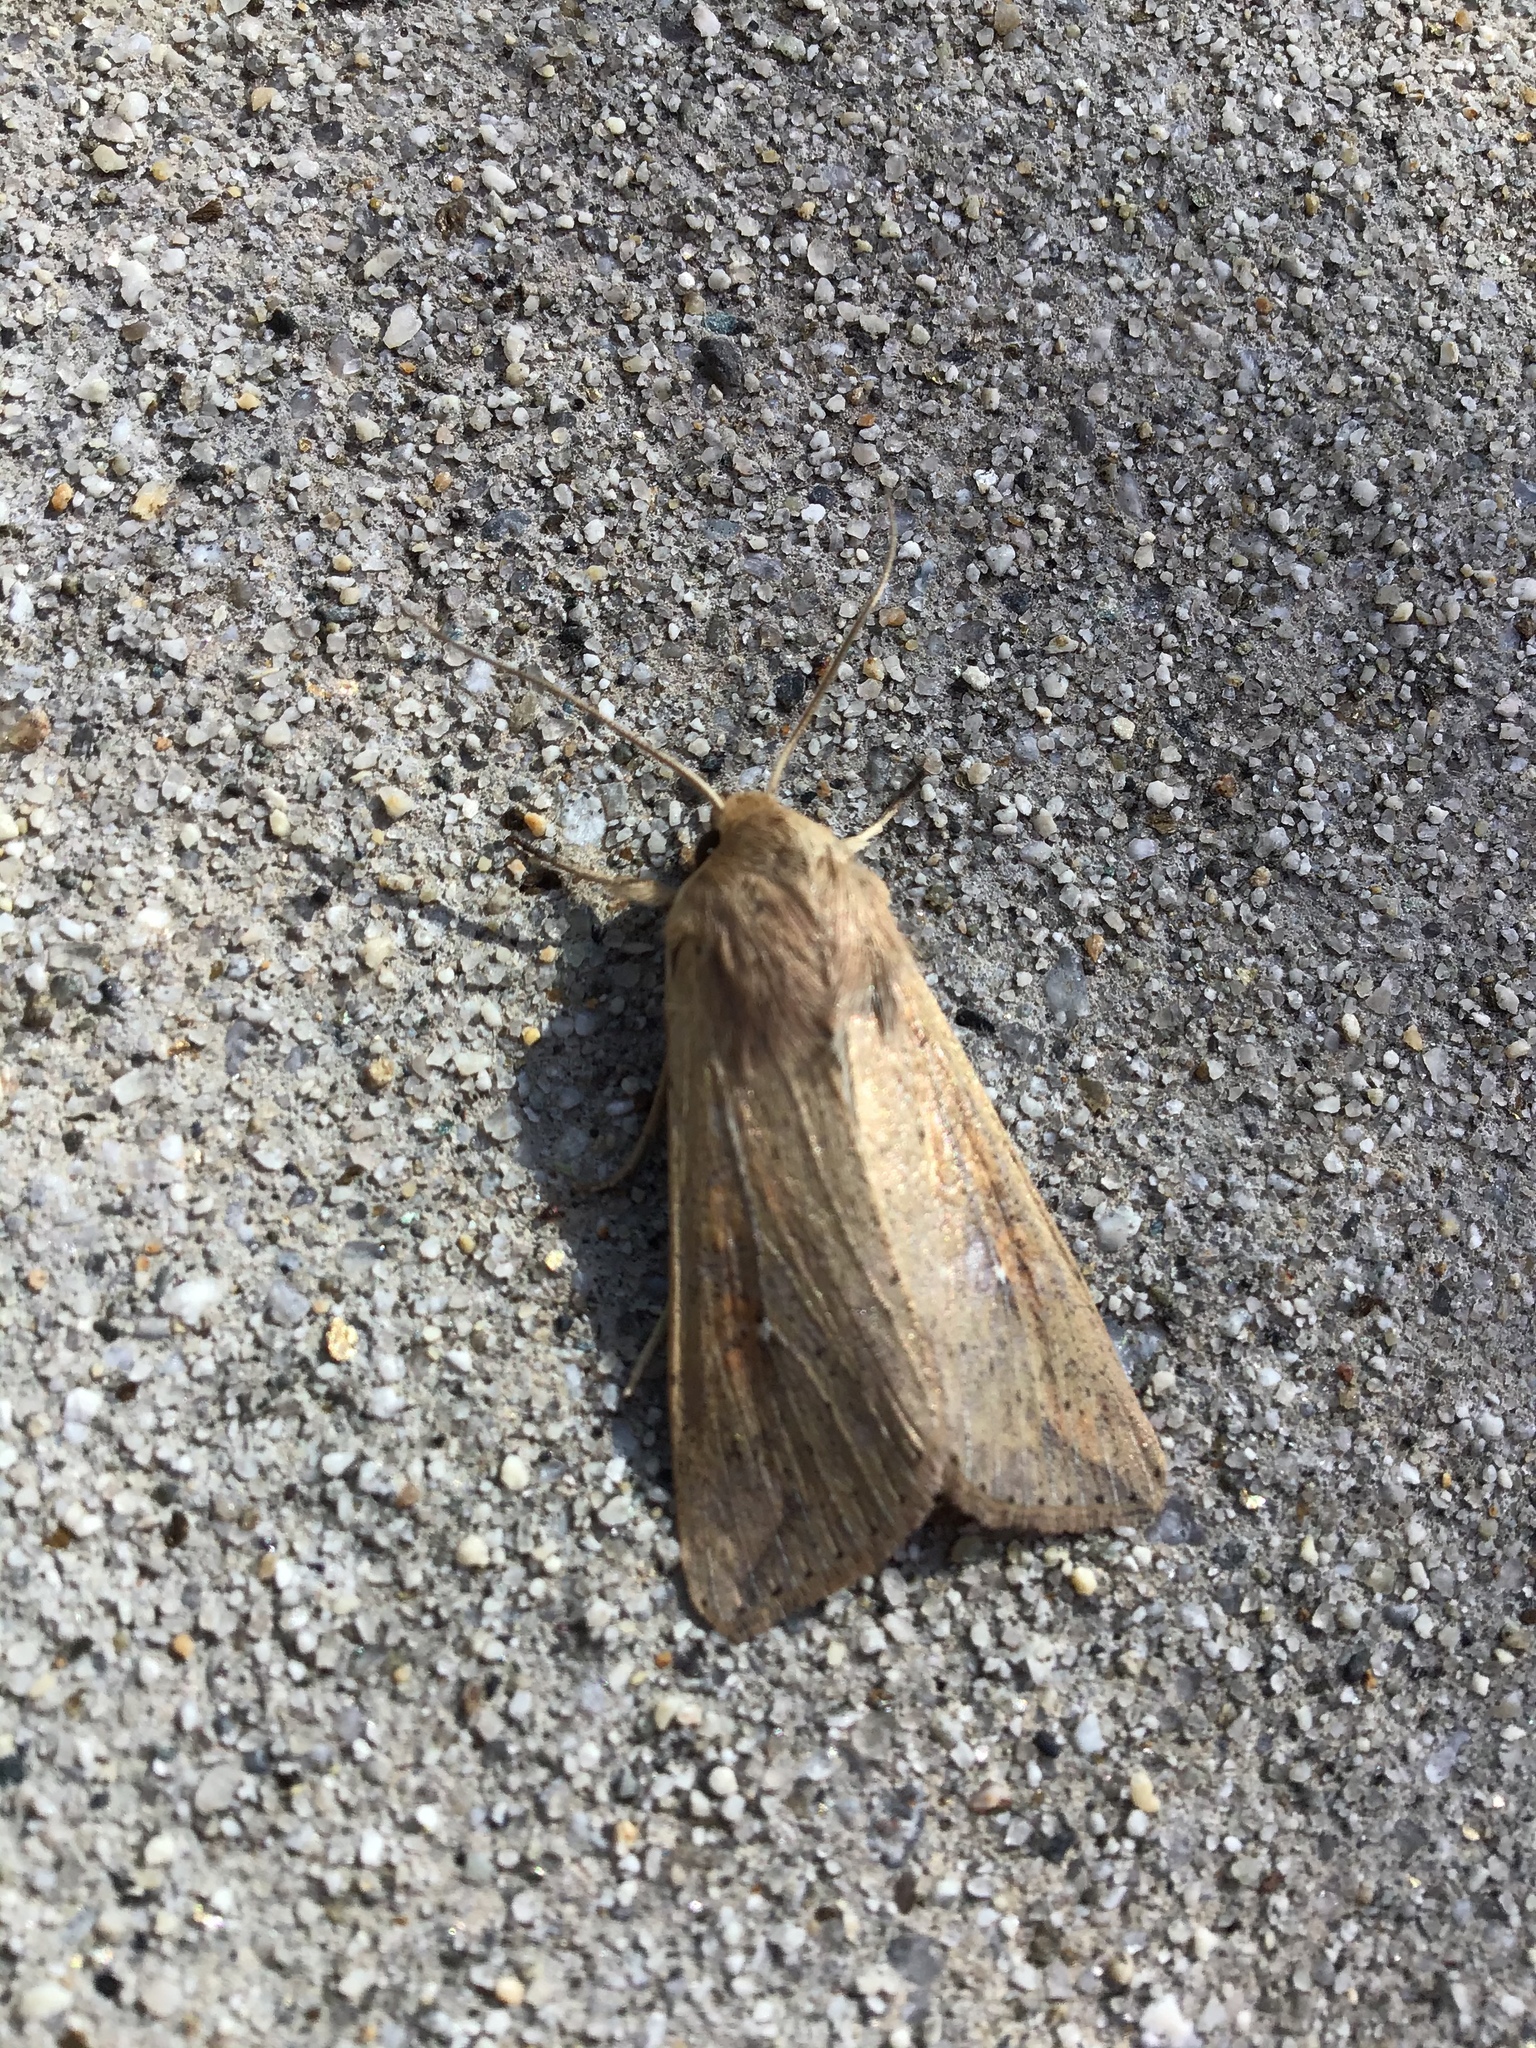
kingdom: Animalia
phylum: Arthropoda
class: Insecta
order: Lepidoptera
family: Noctuidae
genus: Mythimna
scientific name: Mythimna unipuncta
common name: White-speck
